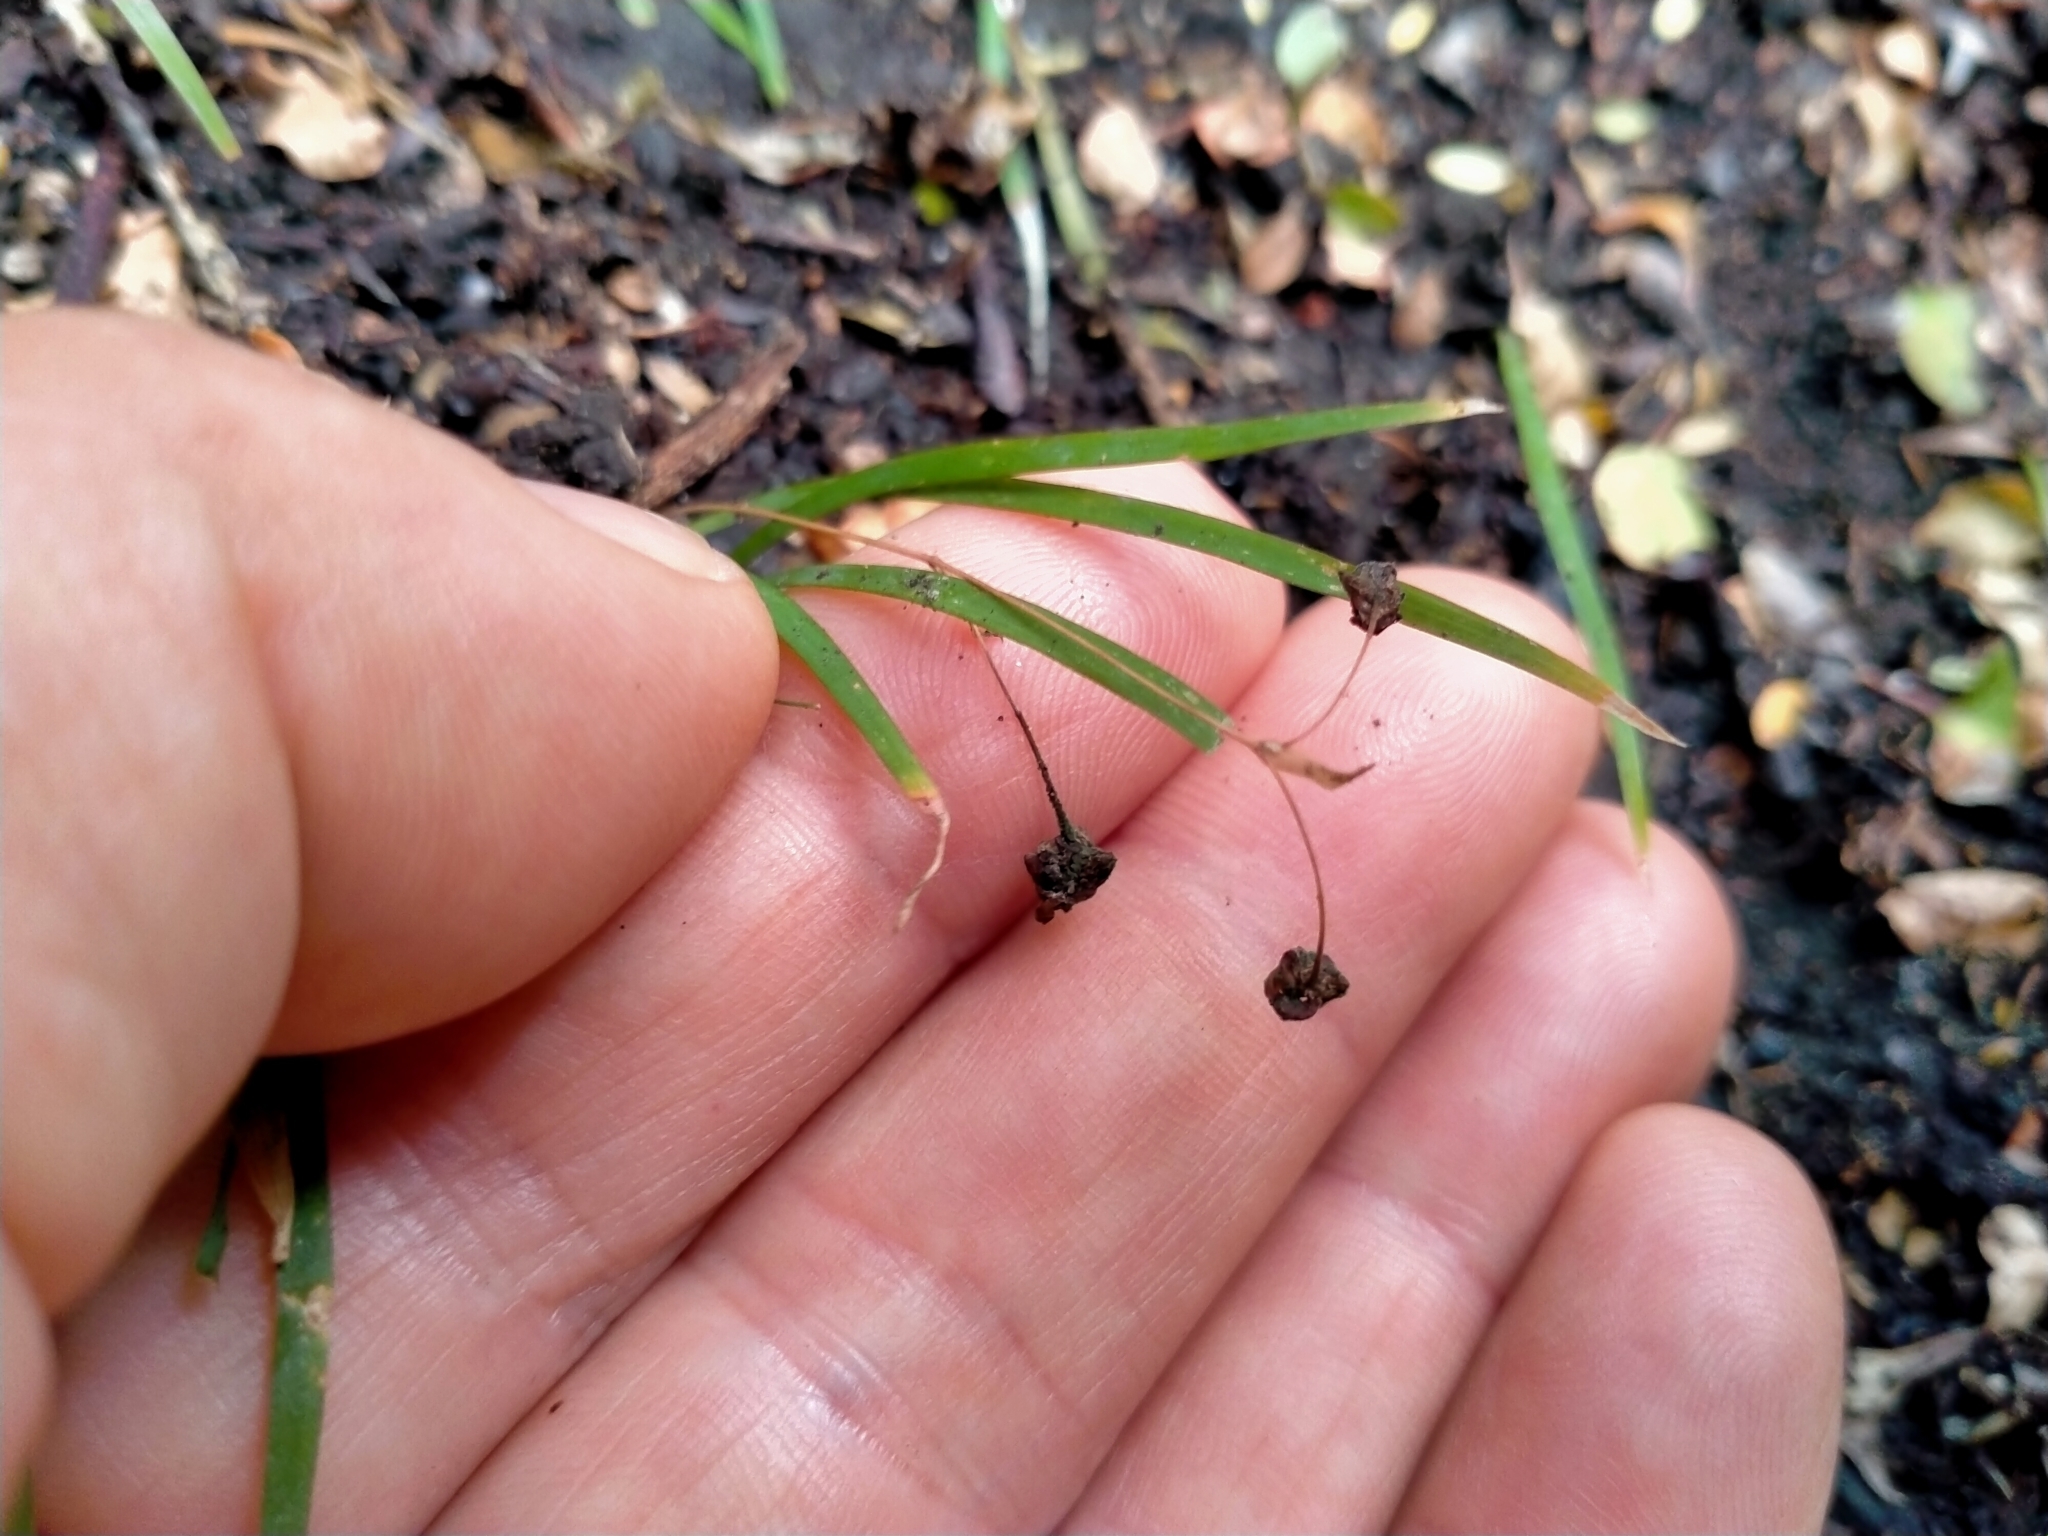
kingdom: Plantae
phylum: Tracheophyta
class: Liliopsida
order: Asparagales
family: Asparagaceae
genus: Arthropodium
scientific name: Arthropodium candidum
